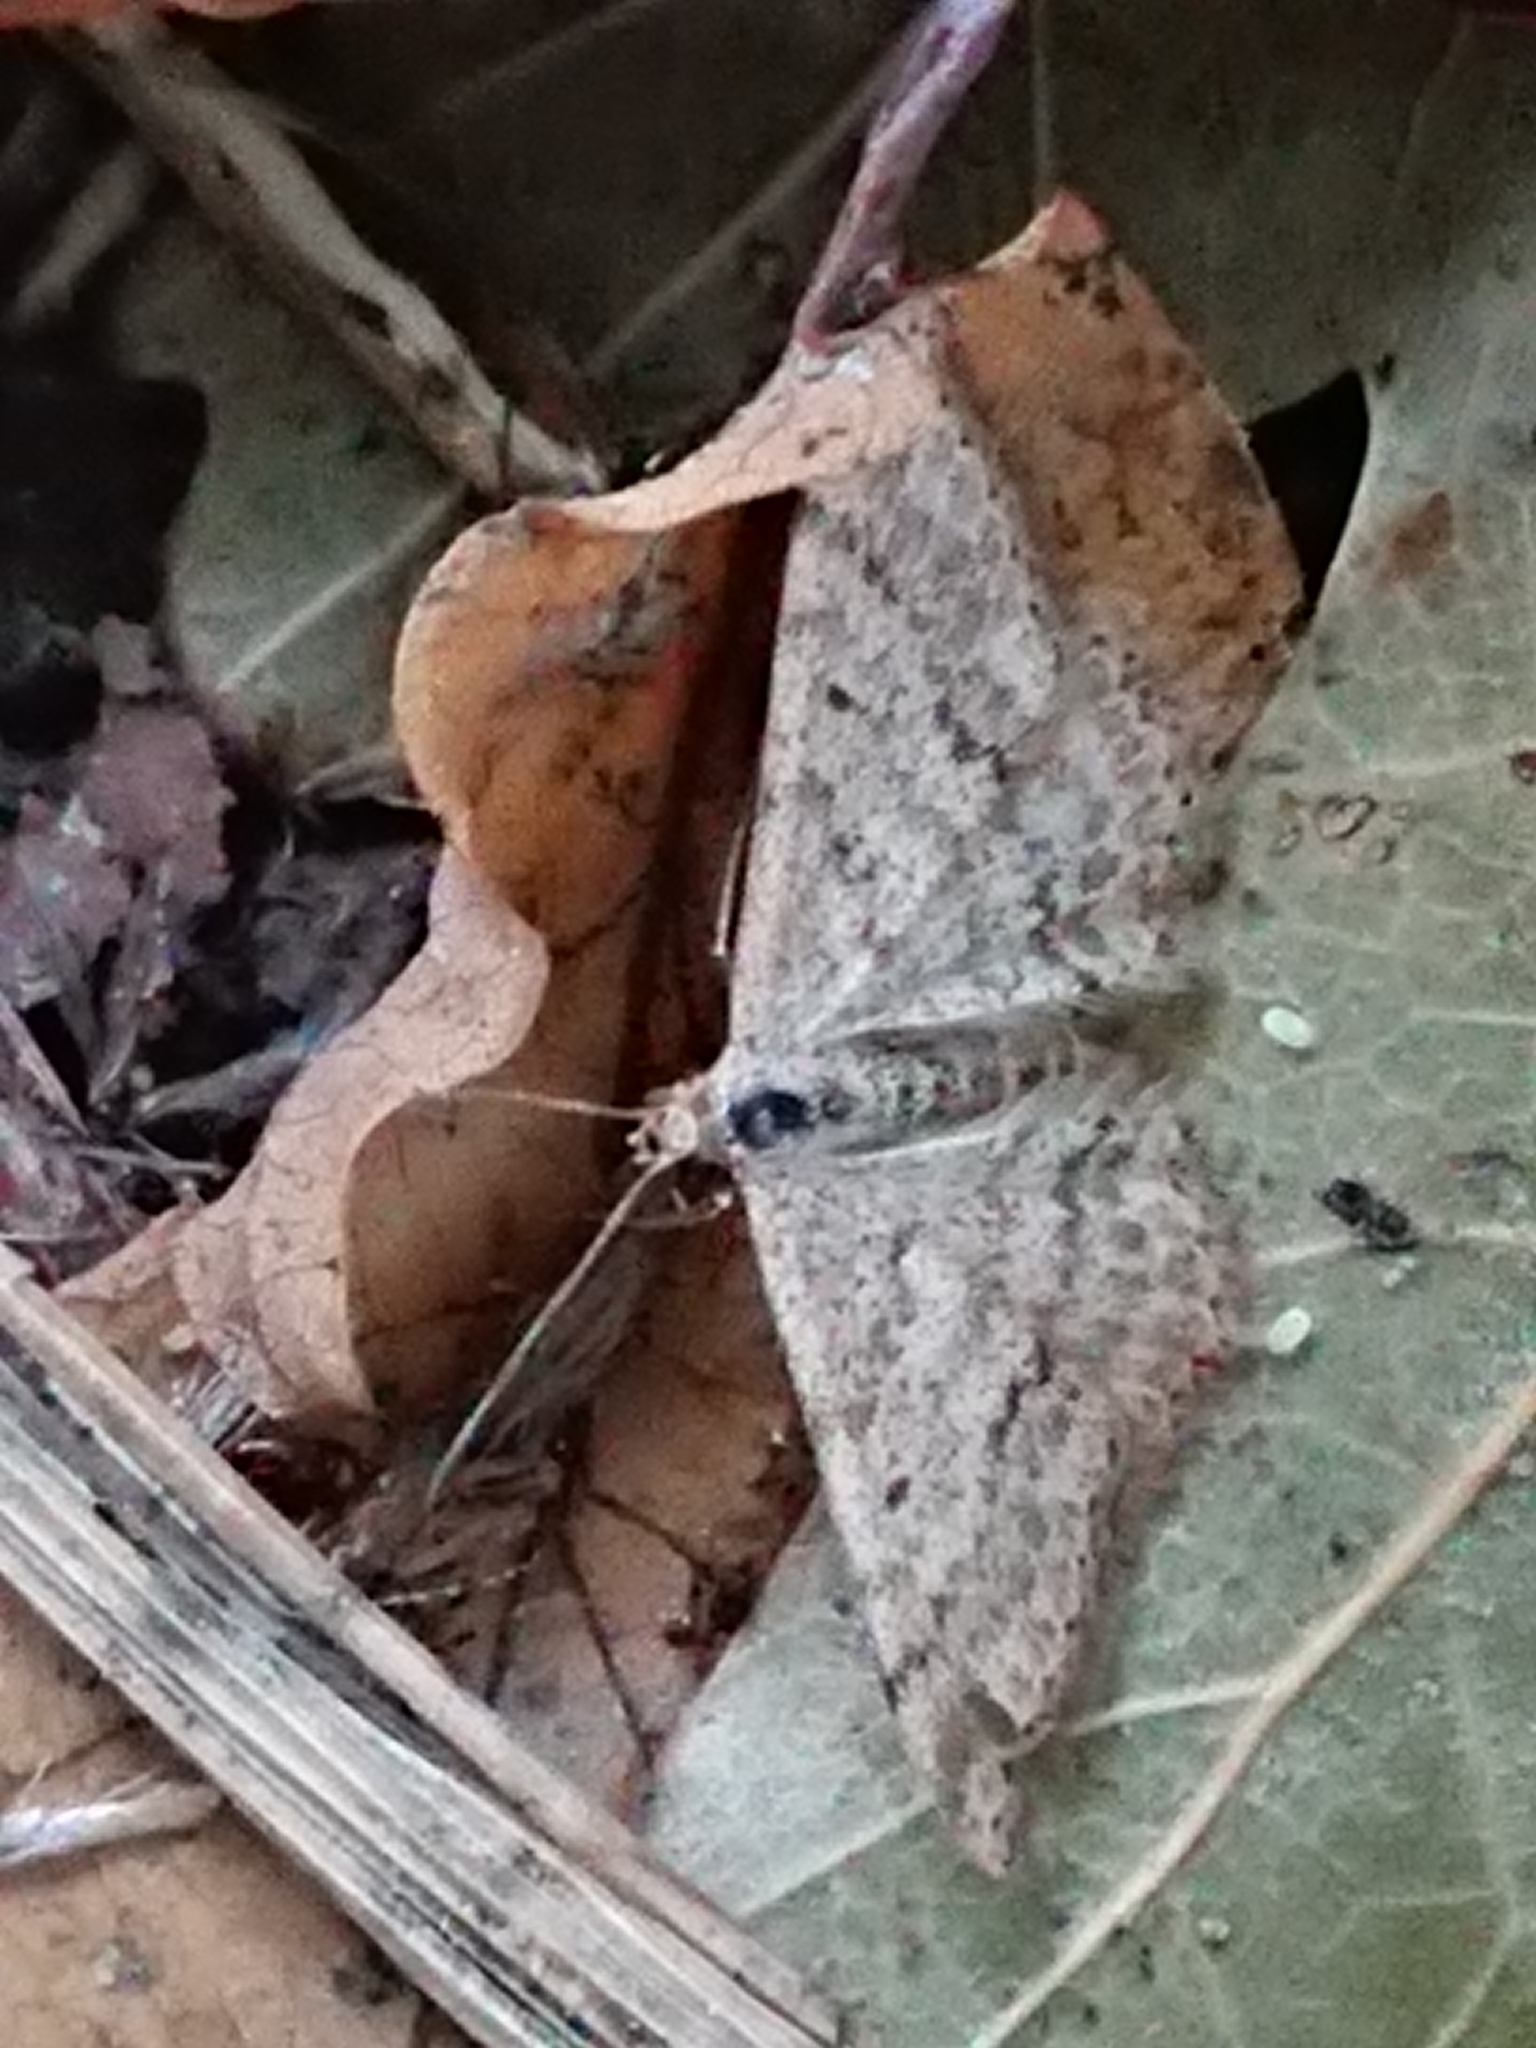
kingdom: Animalia
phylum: Arthropoda
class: Insecta
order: Lepidoptera
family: Geometridae
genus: Scopula
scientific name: Scopula rubraria
